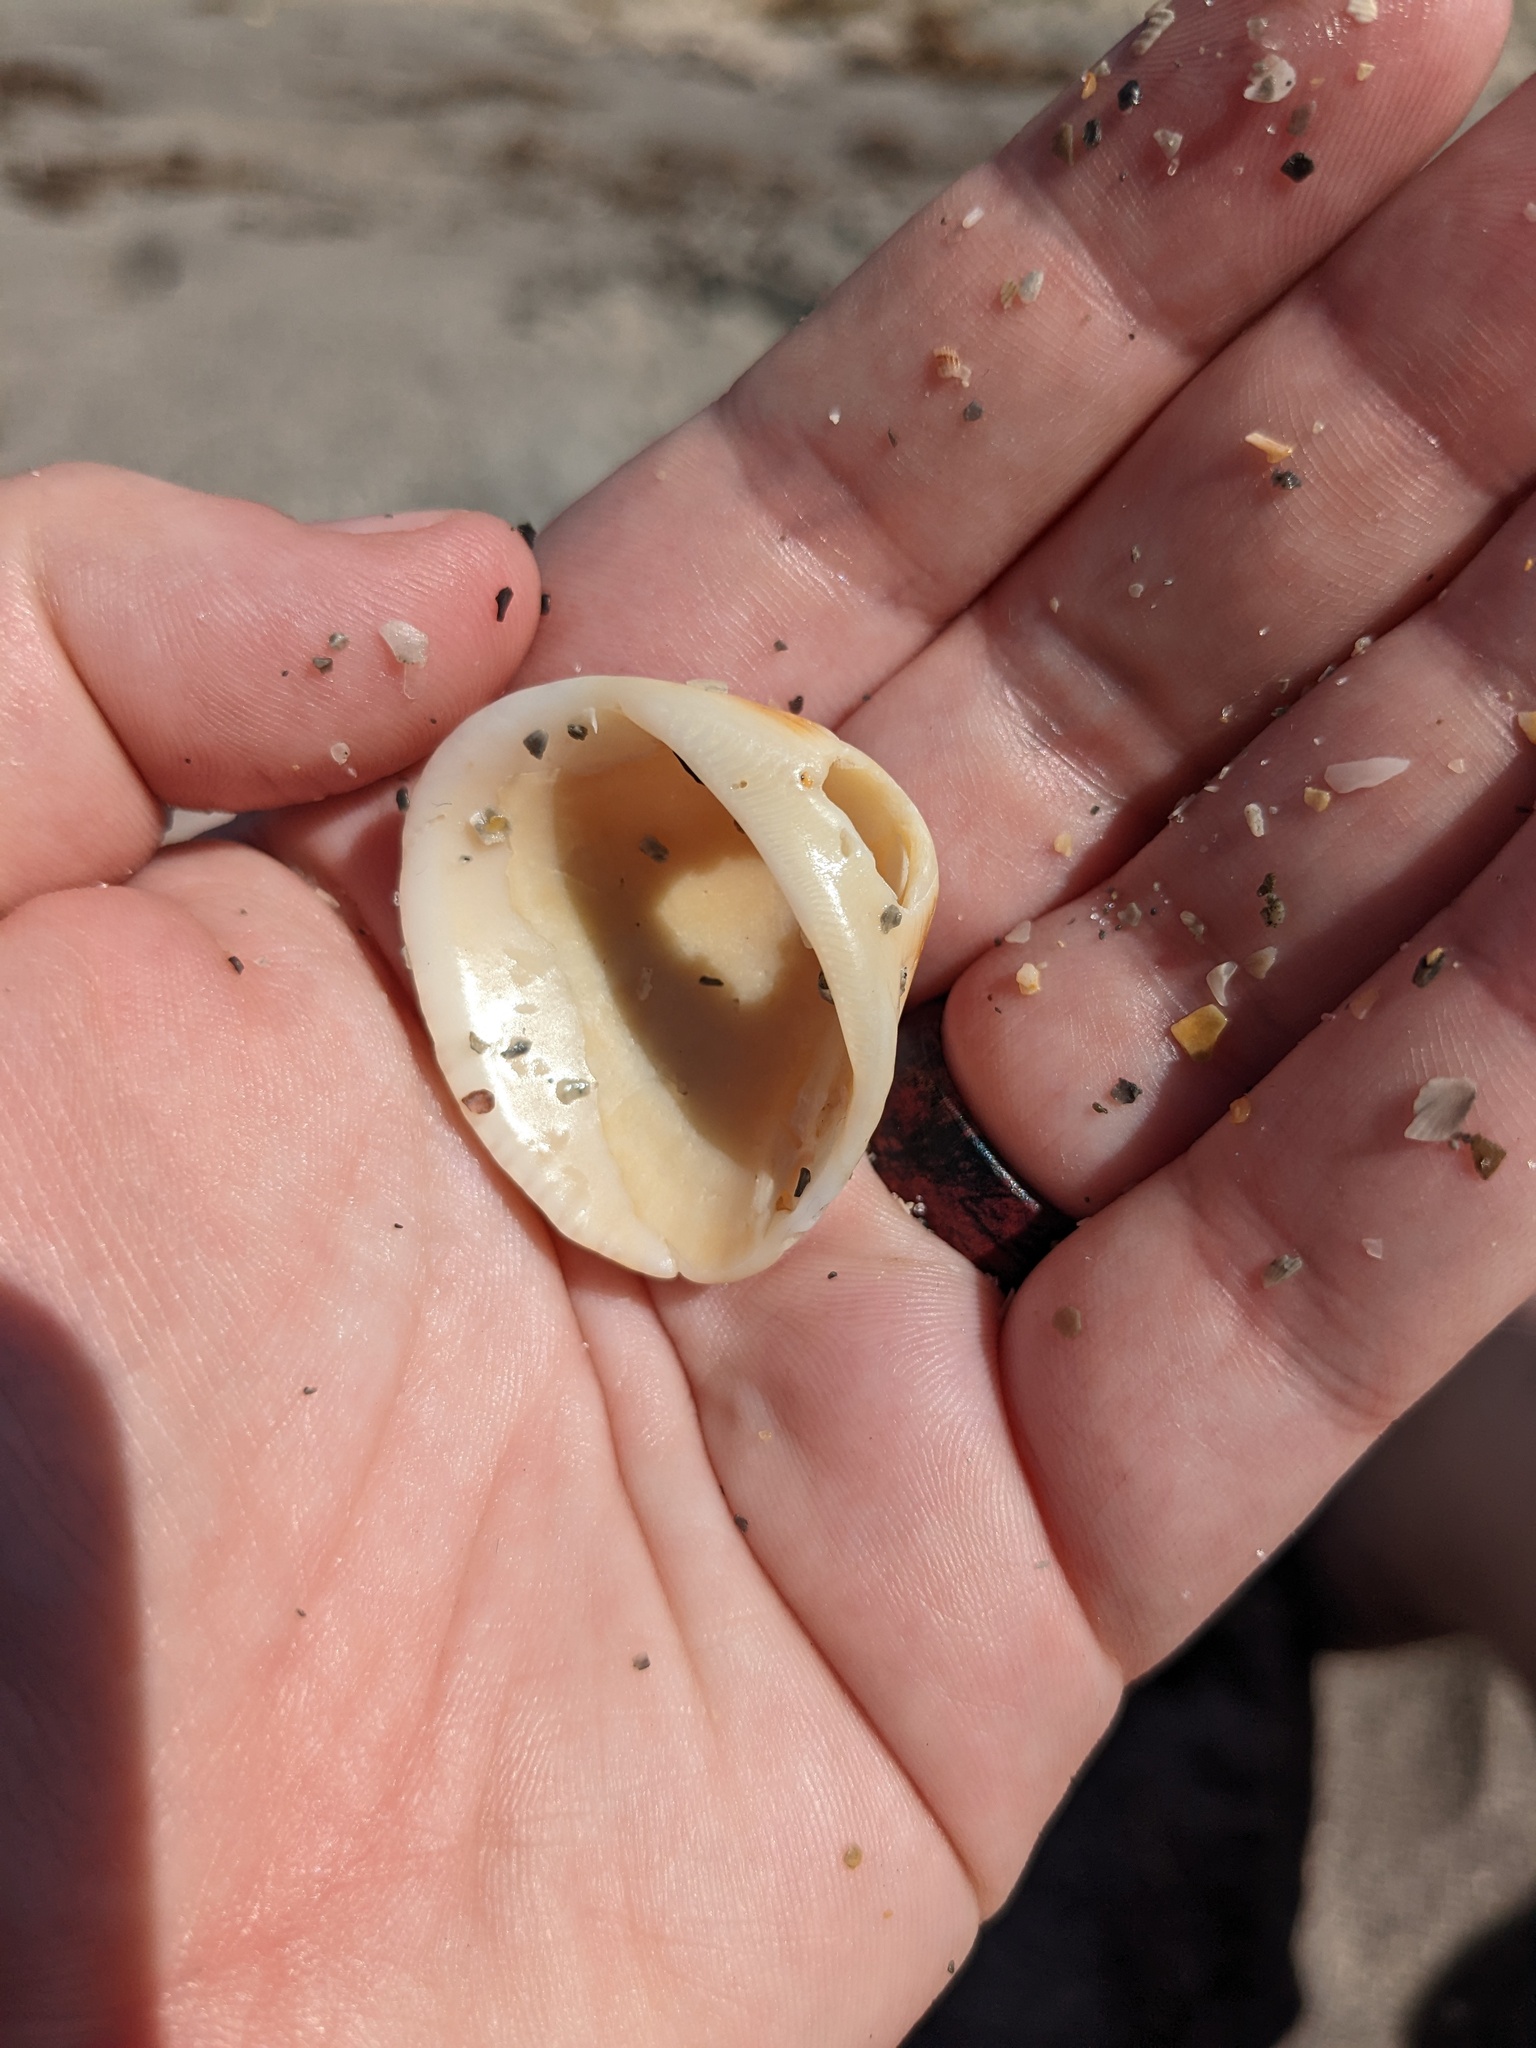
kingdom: Animalia
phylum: Mollusca
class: Bivalvia
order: Arcida
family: Noetiidae
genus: Noetia
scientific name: Noetia ponderosa
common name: Ponderous ark
